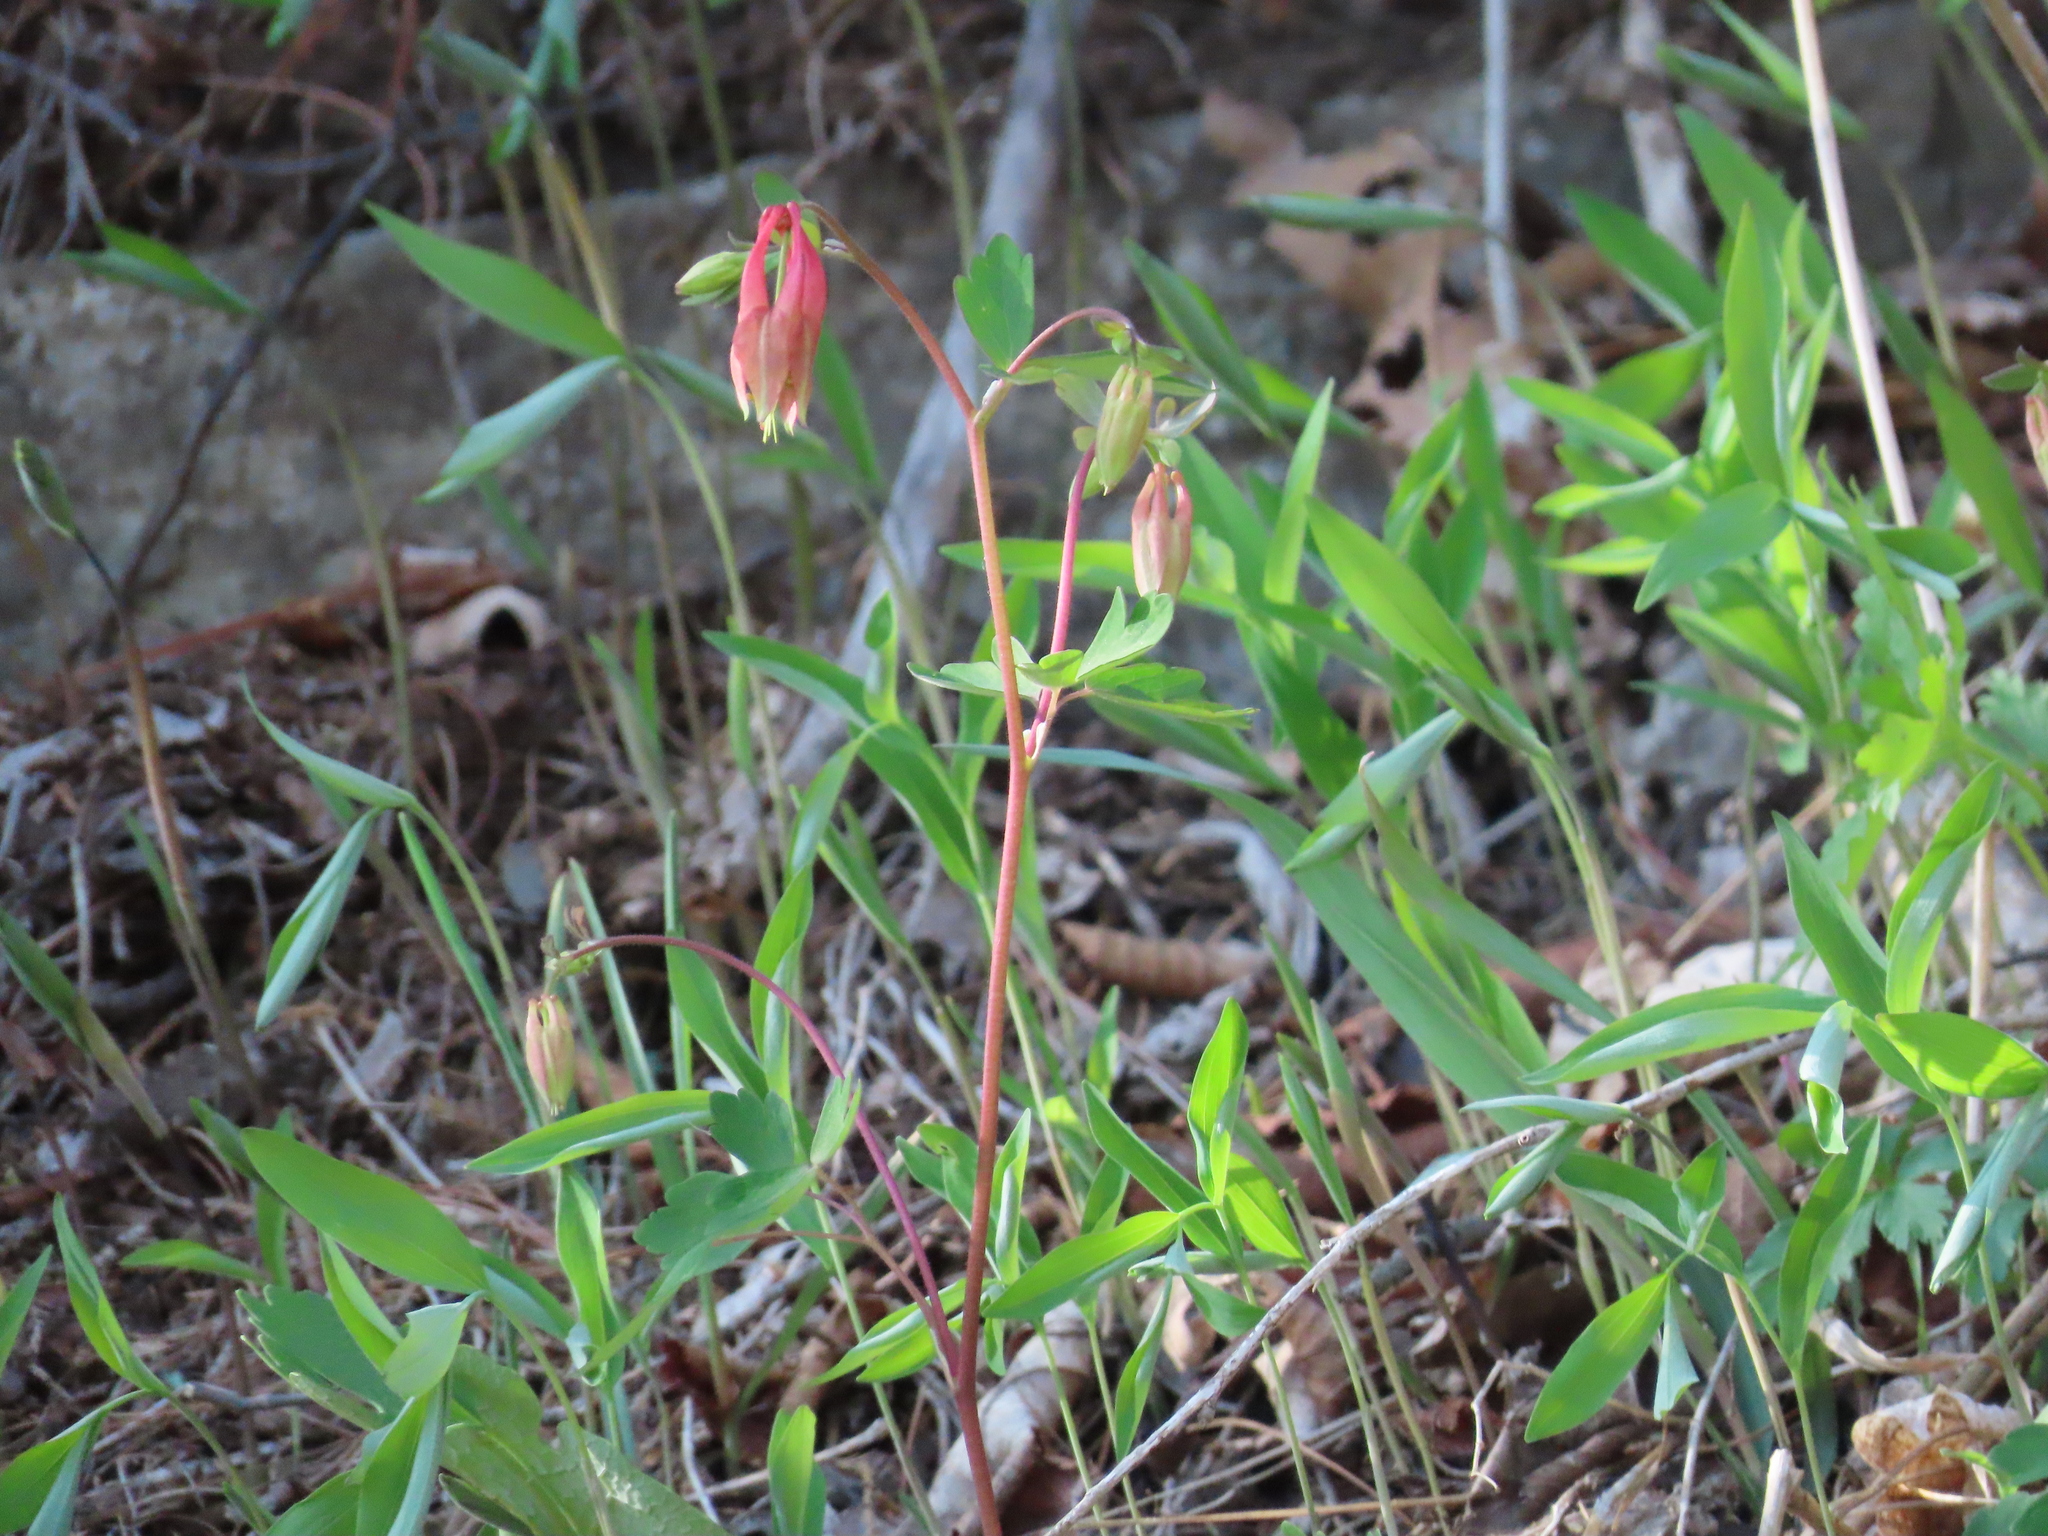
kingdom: Plantae
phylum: Tracheophyta
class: Magnoliopsida
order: Ranunculales
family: Ranunculaceae
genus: Aquilegia
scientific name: Aquilegia canadensis
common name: American columbine
